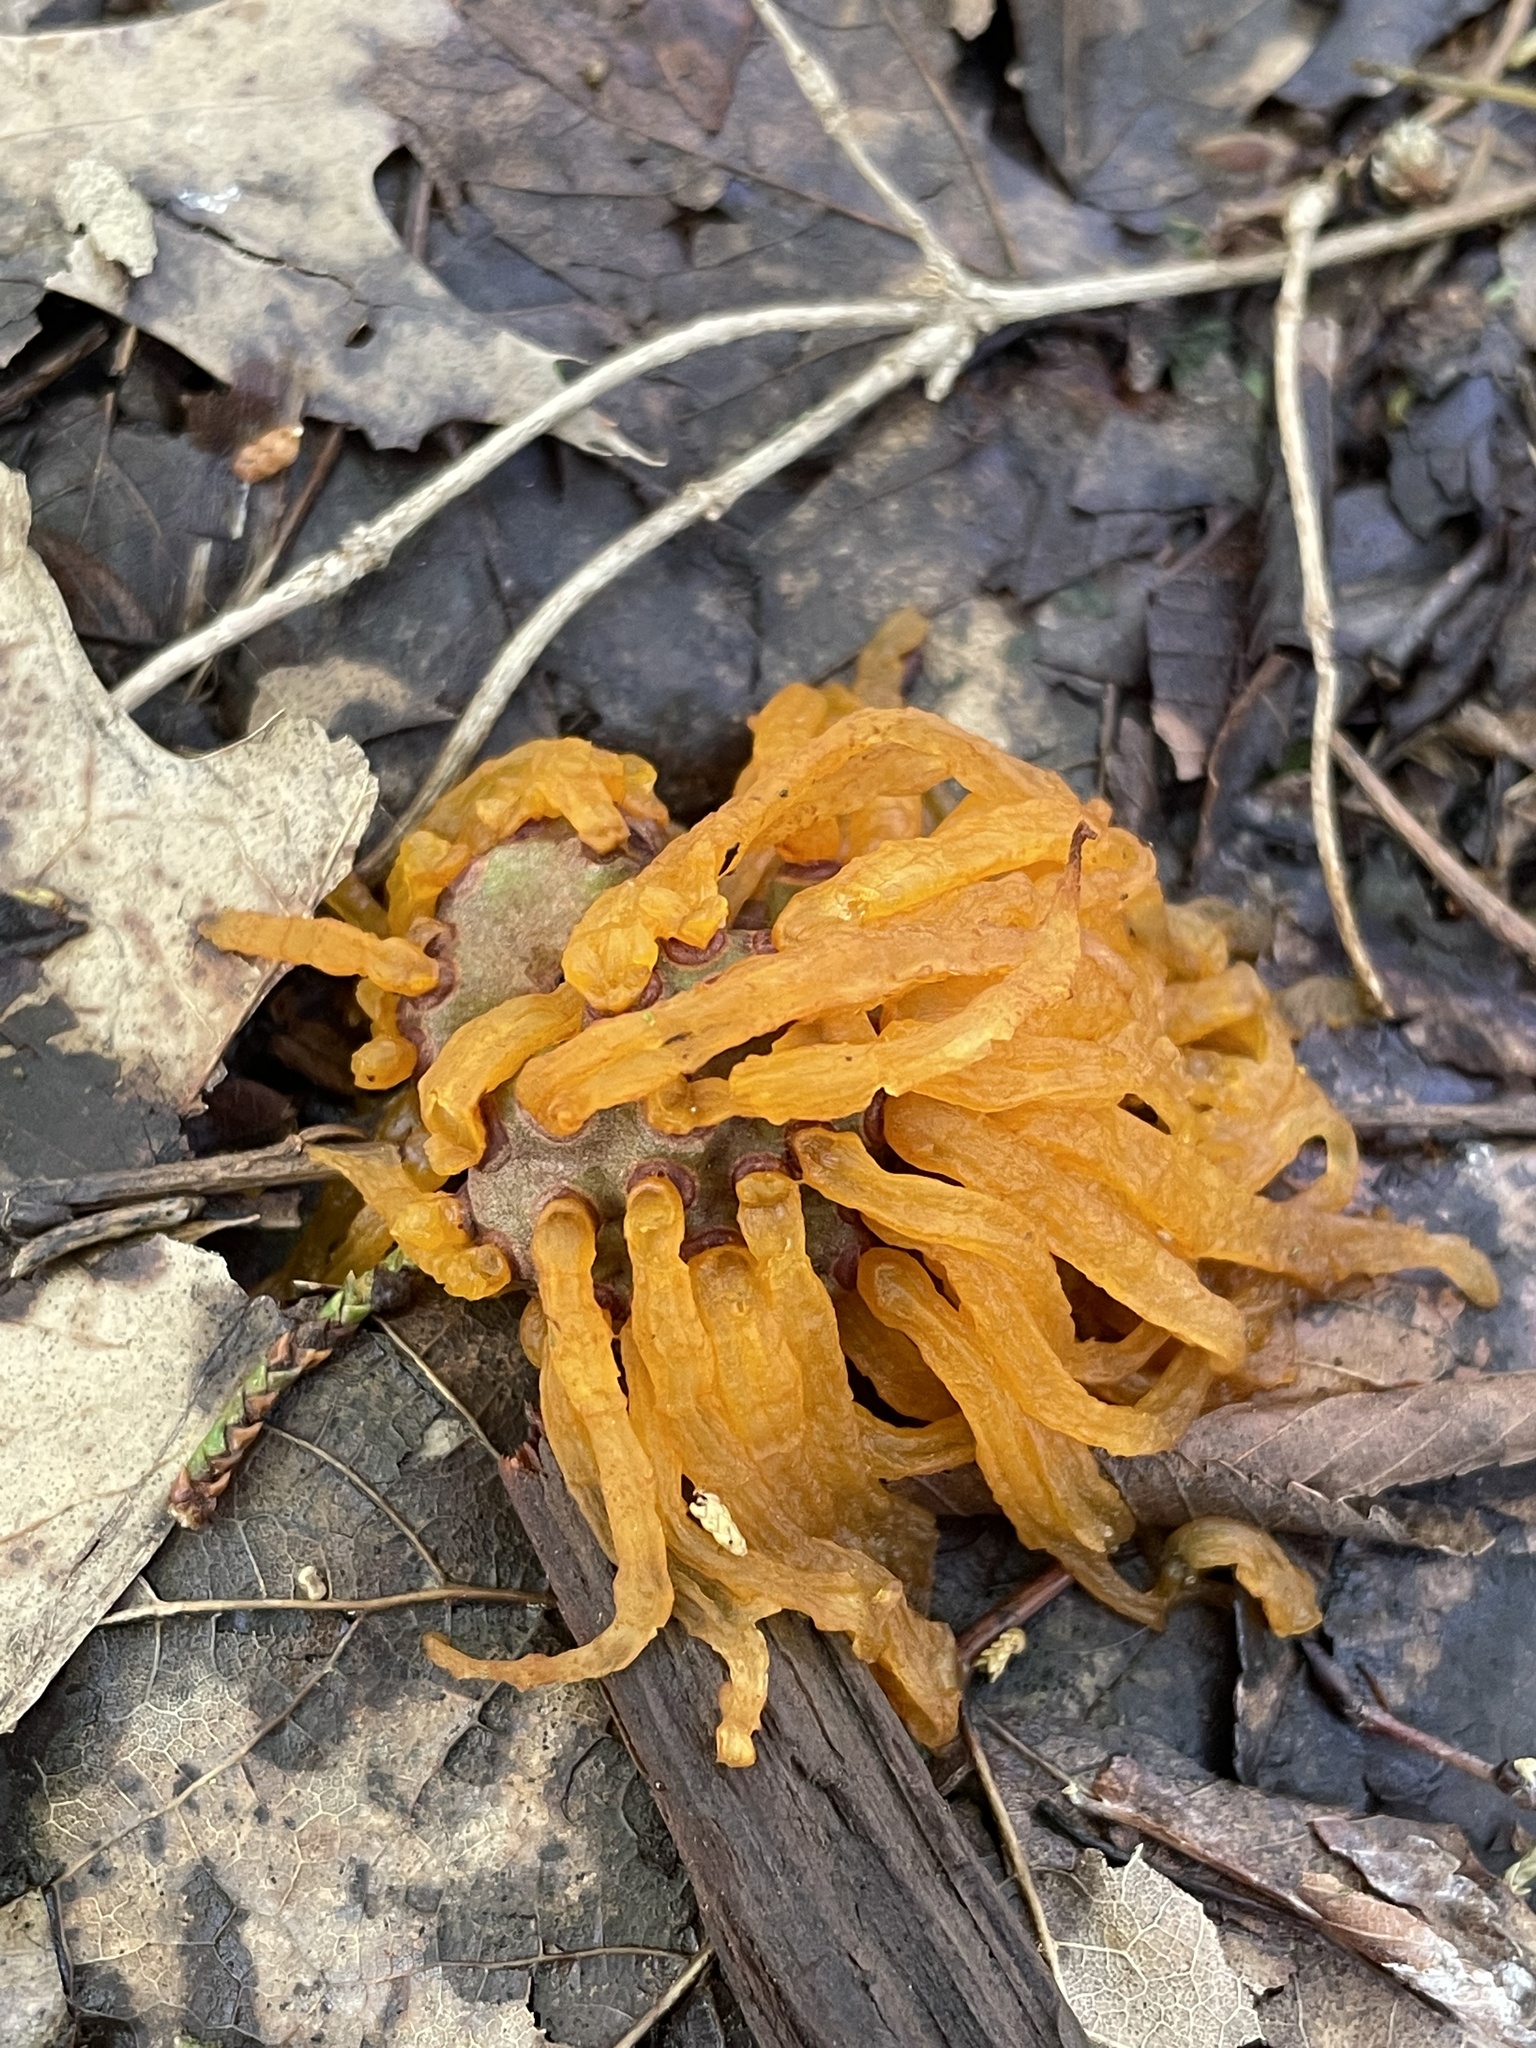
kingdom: Fungi
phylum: Basidiomycota
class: Pucciniomycetes
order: Pucciniales
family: Gymnosporangiaceae
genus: Gymnosporangium
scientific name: Gymnosporangium juniperi-virginianae
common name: Juniper-apple rust
